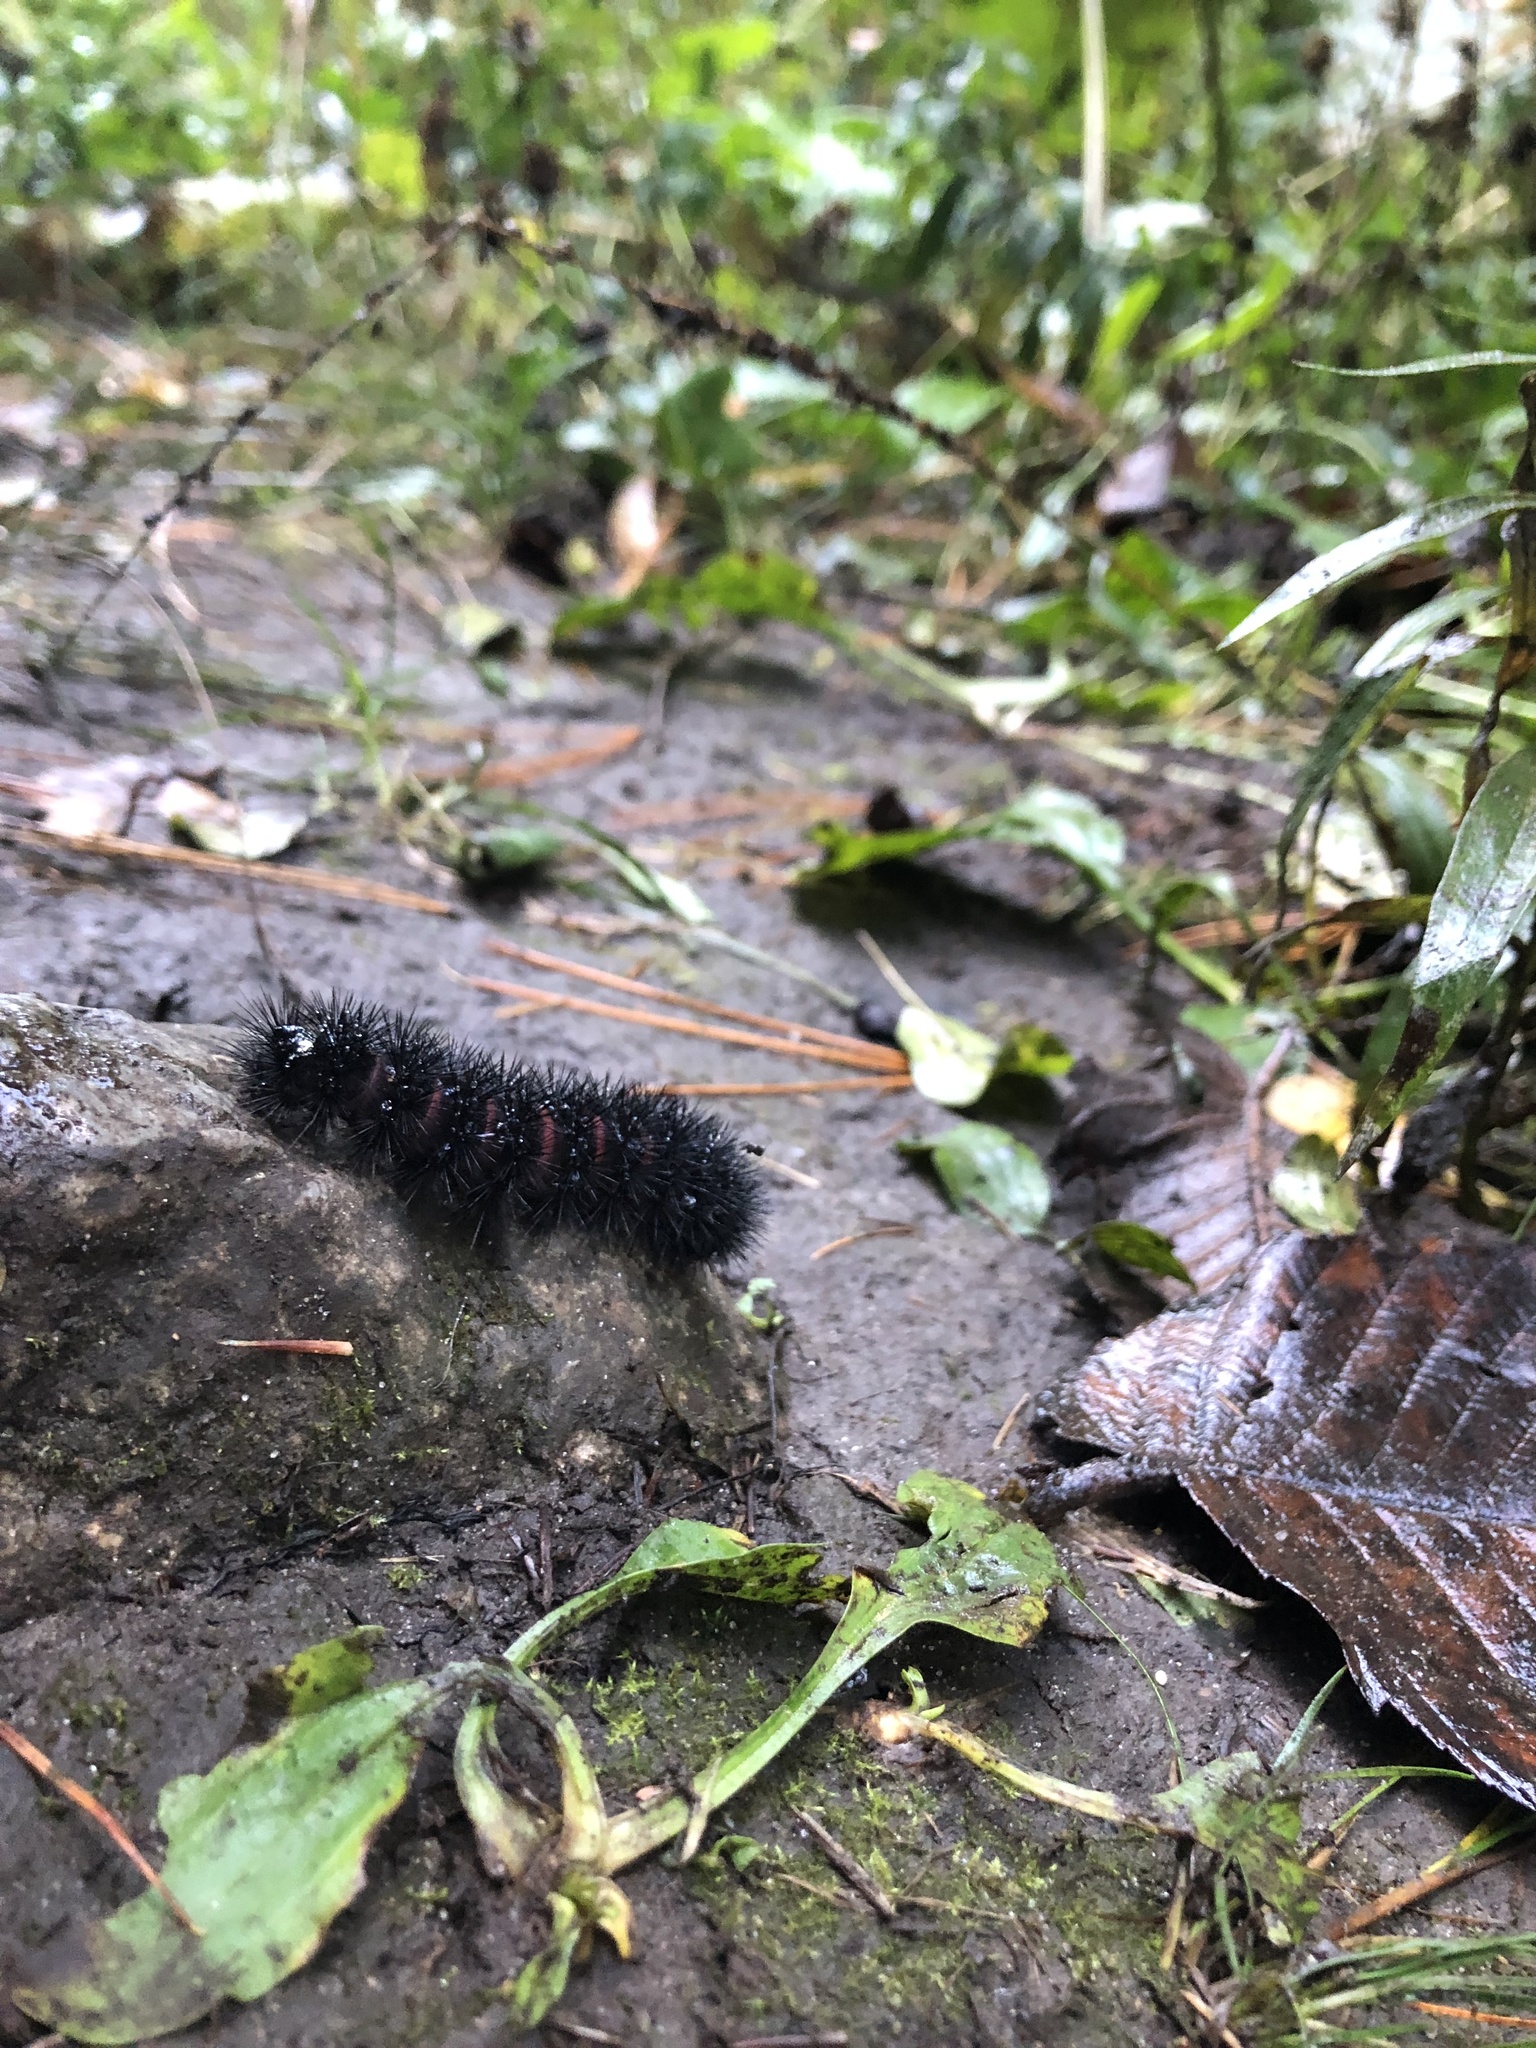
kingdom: Animalia
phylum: Arthropoda
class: Insecta
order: Lepidoptera
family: Erebidae
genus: Hypercompe
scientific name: Hypercompe scribonia
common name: Giant leopard moth
